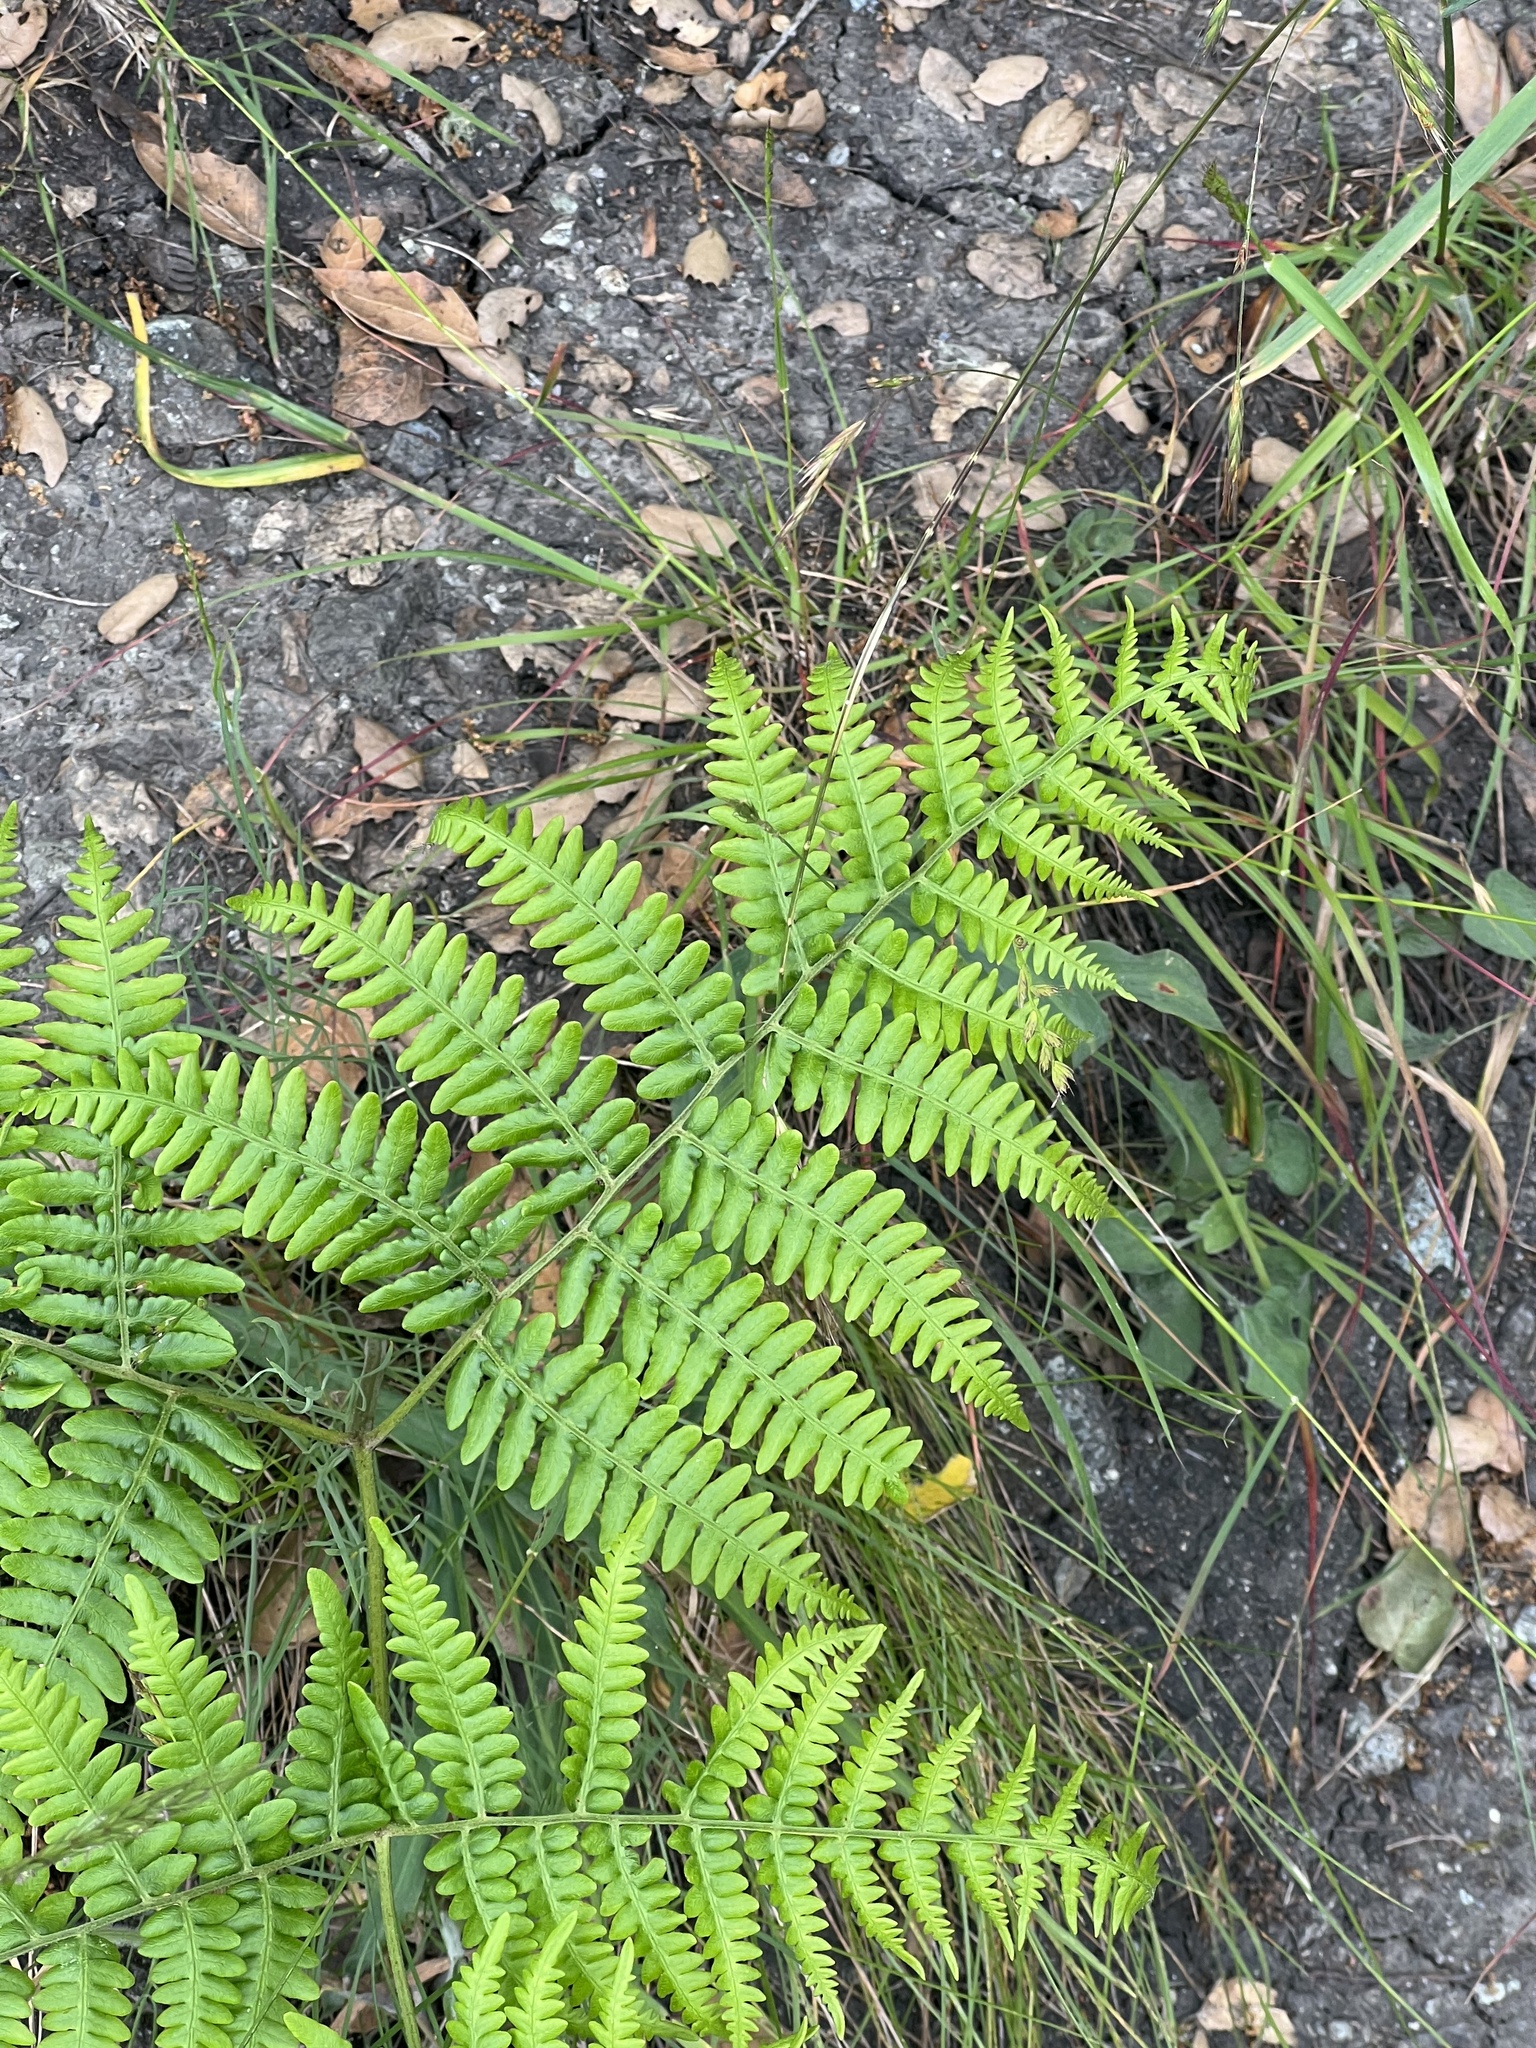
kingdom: Plantae
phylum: Tracheophyta
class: Polypodiopsida
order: Polypodiales
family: Dennstaedtiaceae
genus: Pteridium
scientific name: Pteridium aquilinum
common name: Bracken
